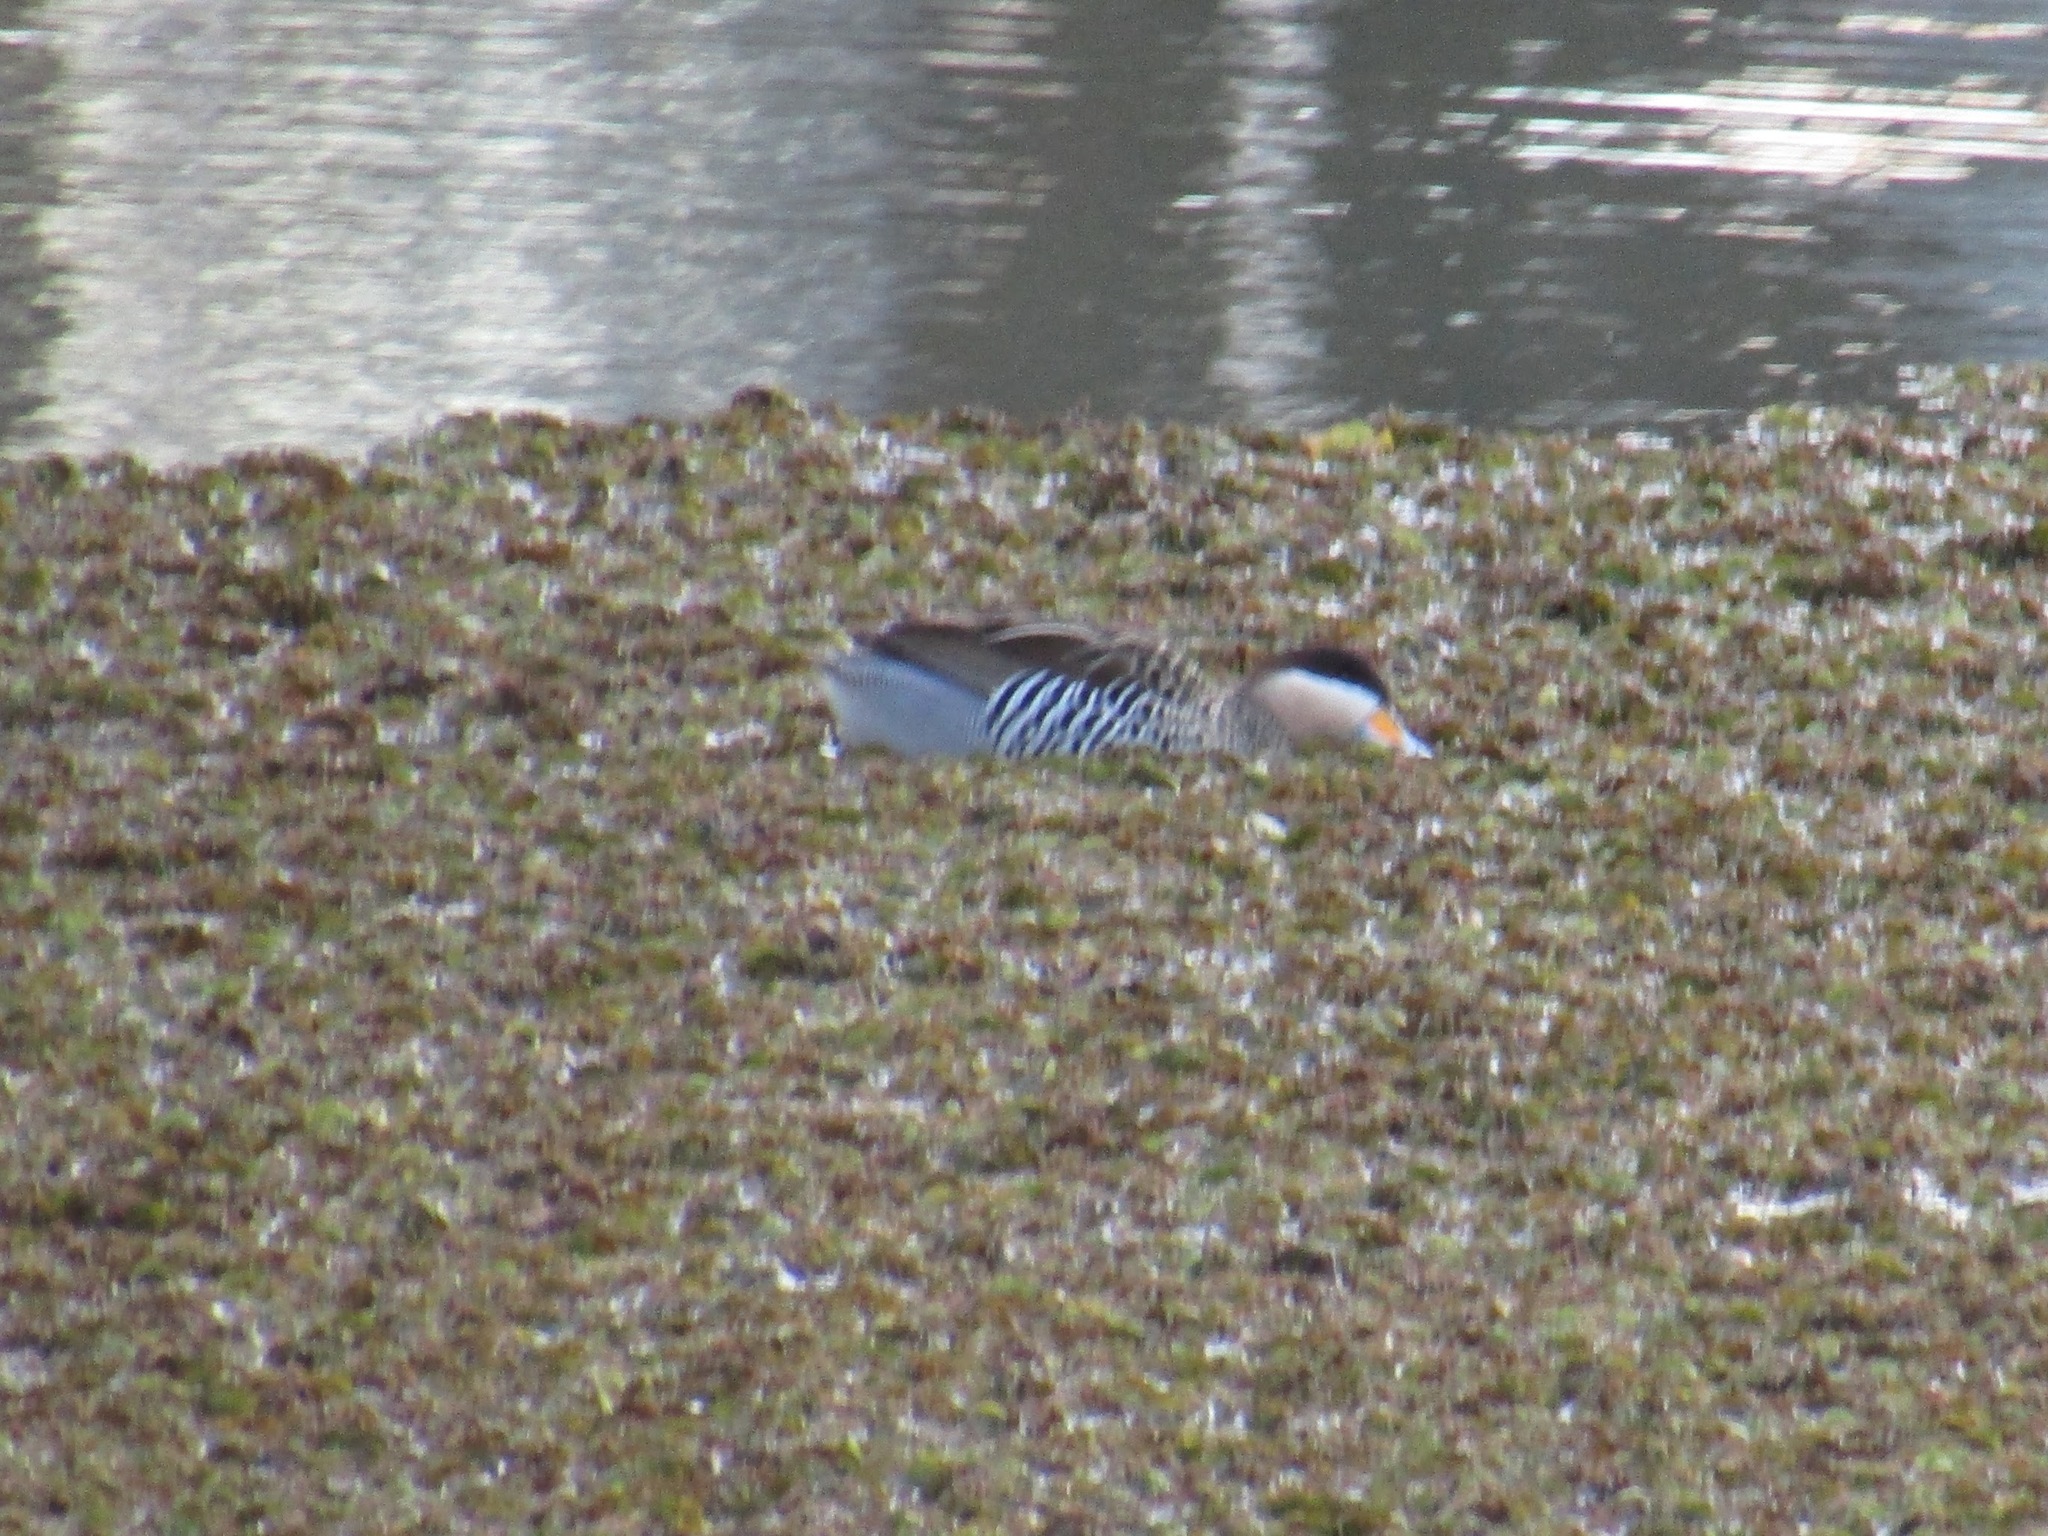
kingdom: Animalia
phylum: Chordata
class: Aves
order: Anseriformes
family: Anatidae
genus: Spatula
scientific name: Spatula versicolor
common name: Silver teal
